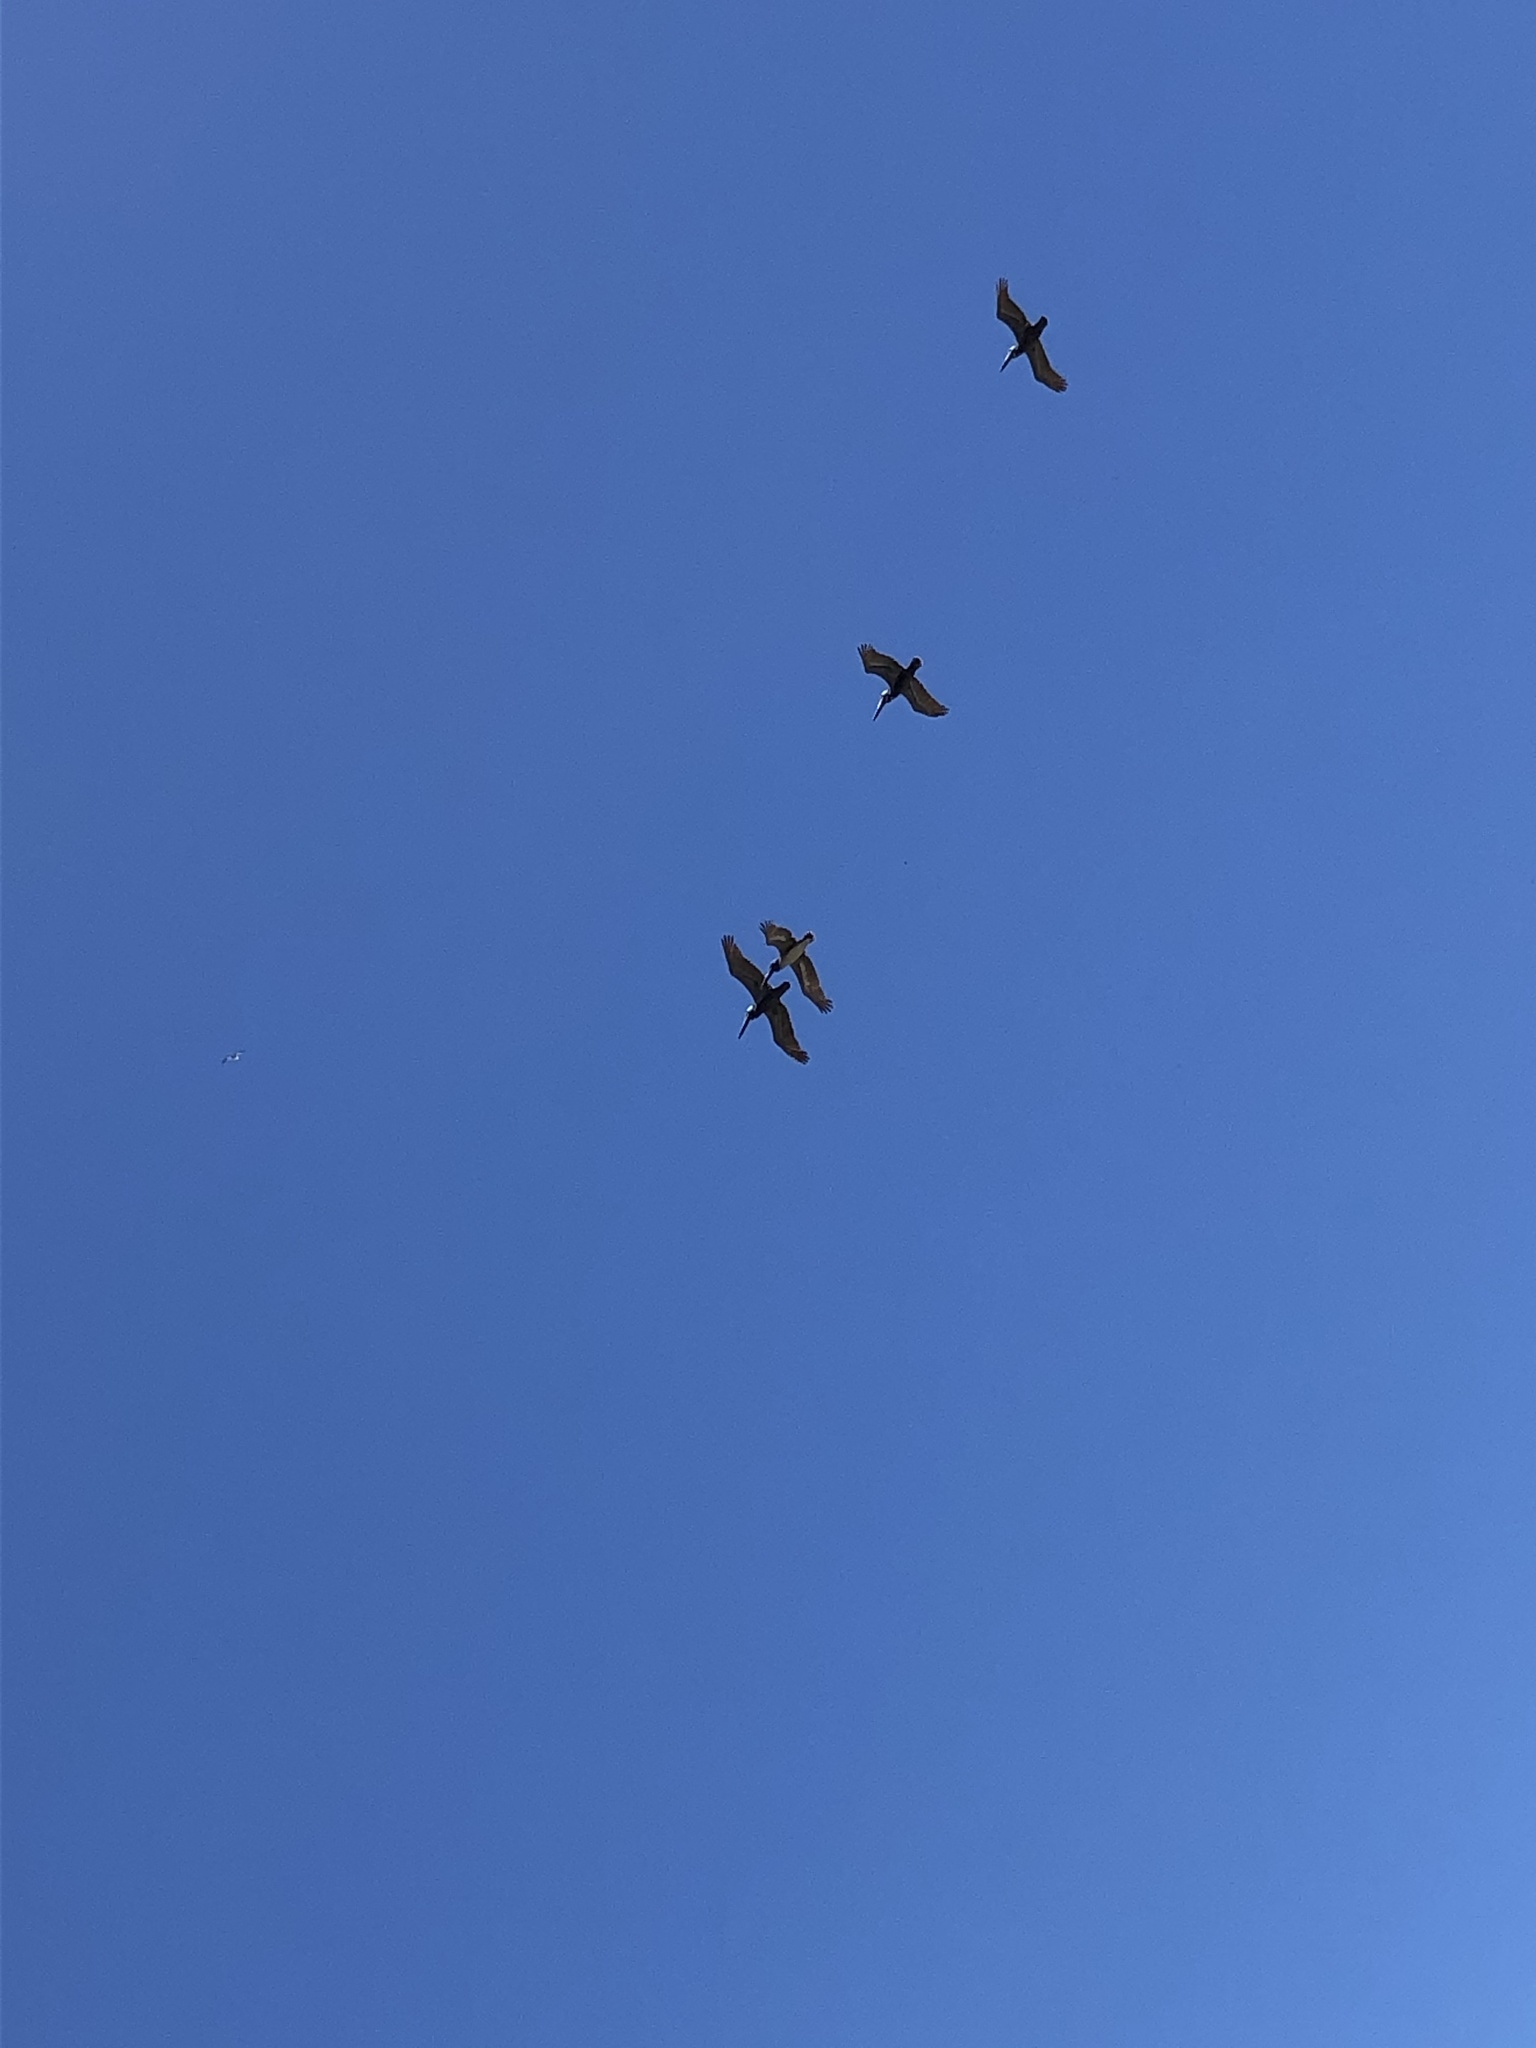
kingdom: Animalia
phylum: Chordata
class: Aves
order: Pelecaniformes
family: Pelecanidae
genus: Pelecanus
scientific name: Pelecanus occidentalis
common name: Brown pelican
